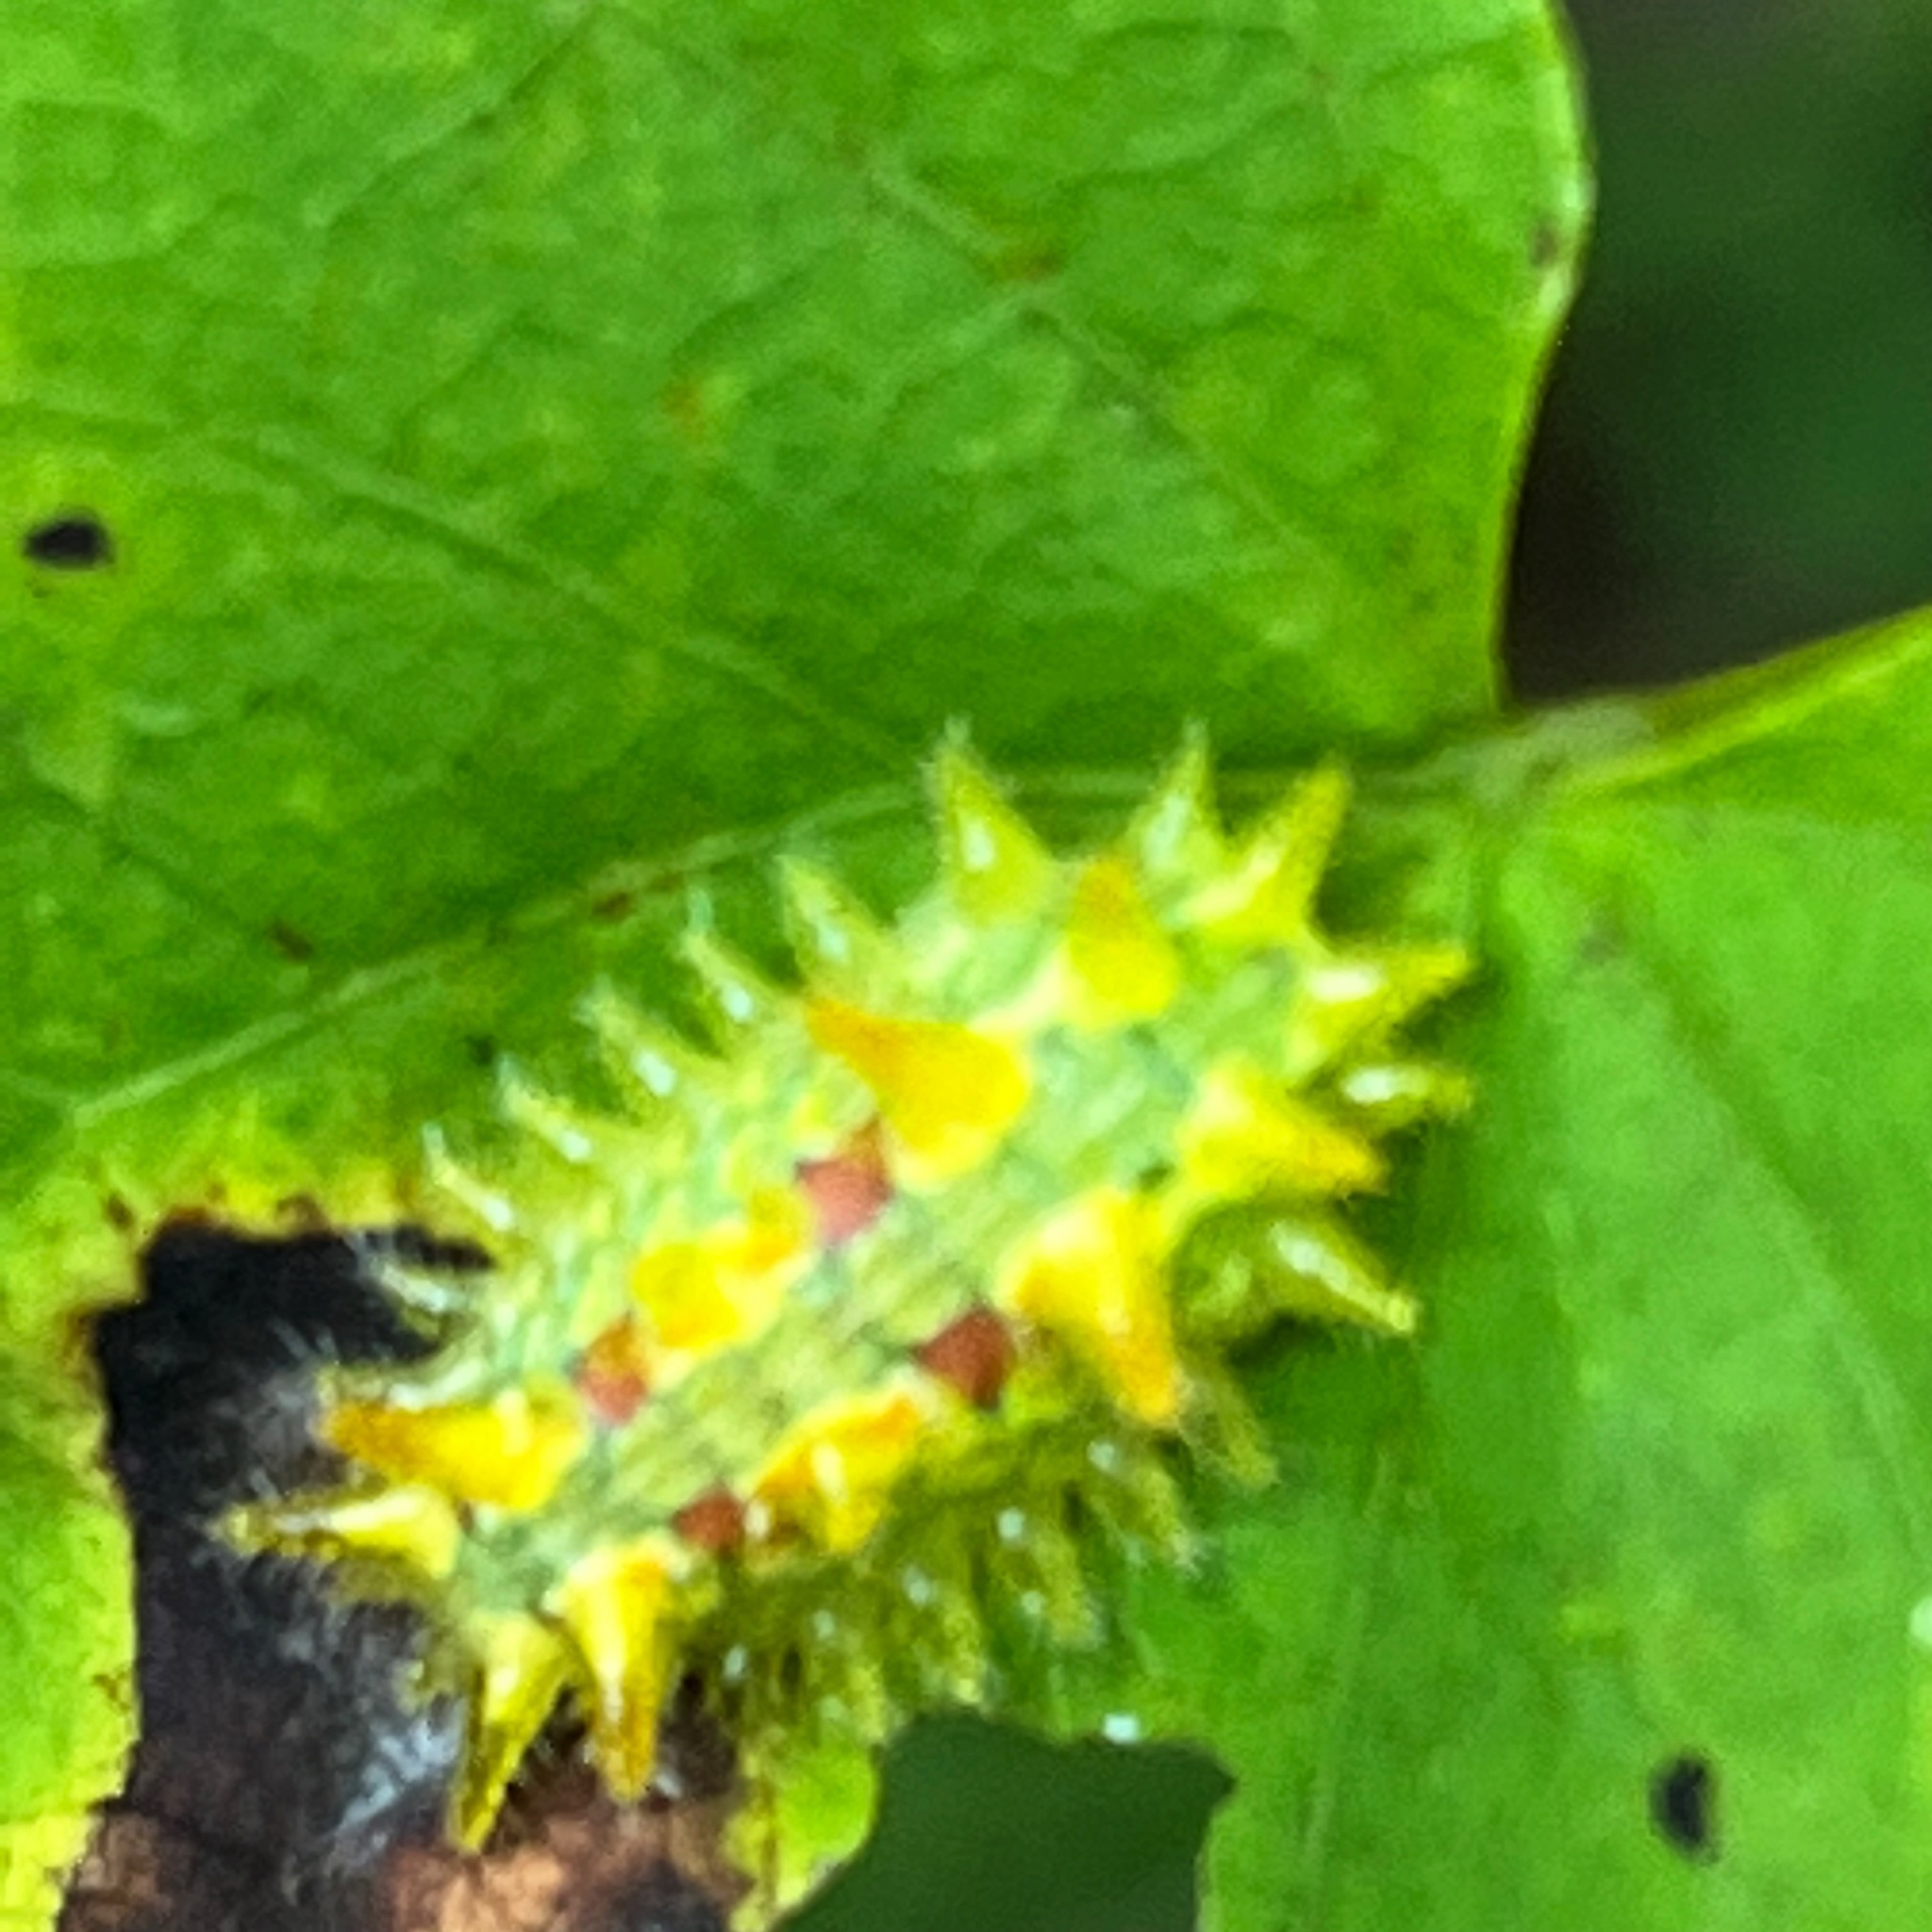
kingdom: Animalia
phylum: Arthropoda
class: Insecta
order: Lepidoptera
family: Limacodidae
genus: Euclea
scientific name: Euclea delphinii
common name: Spiny oak-slug moth
